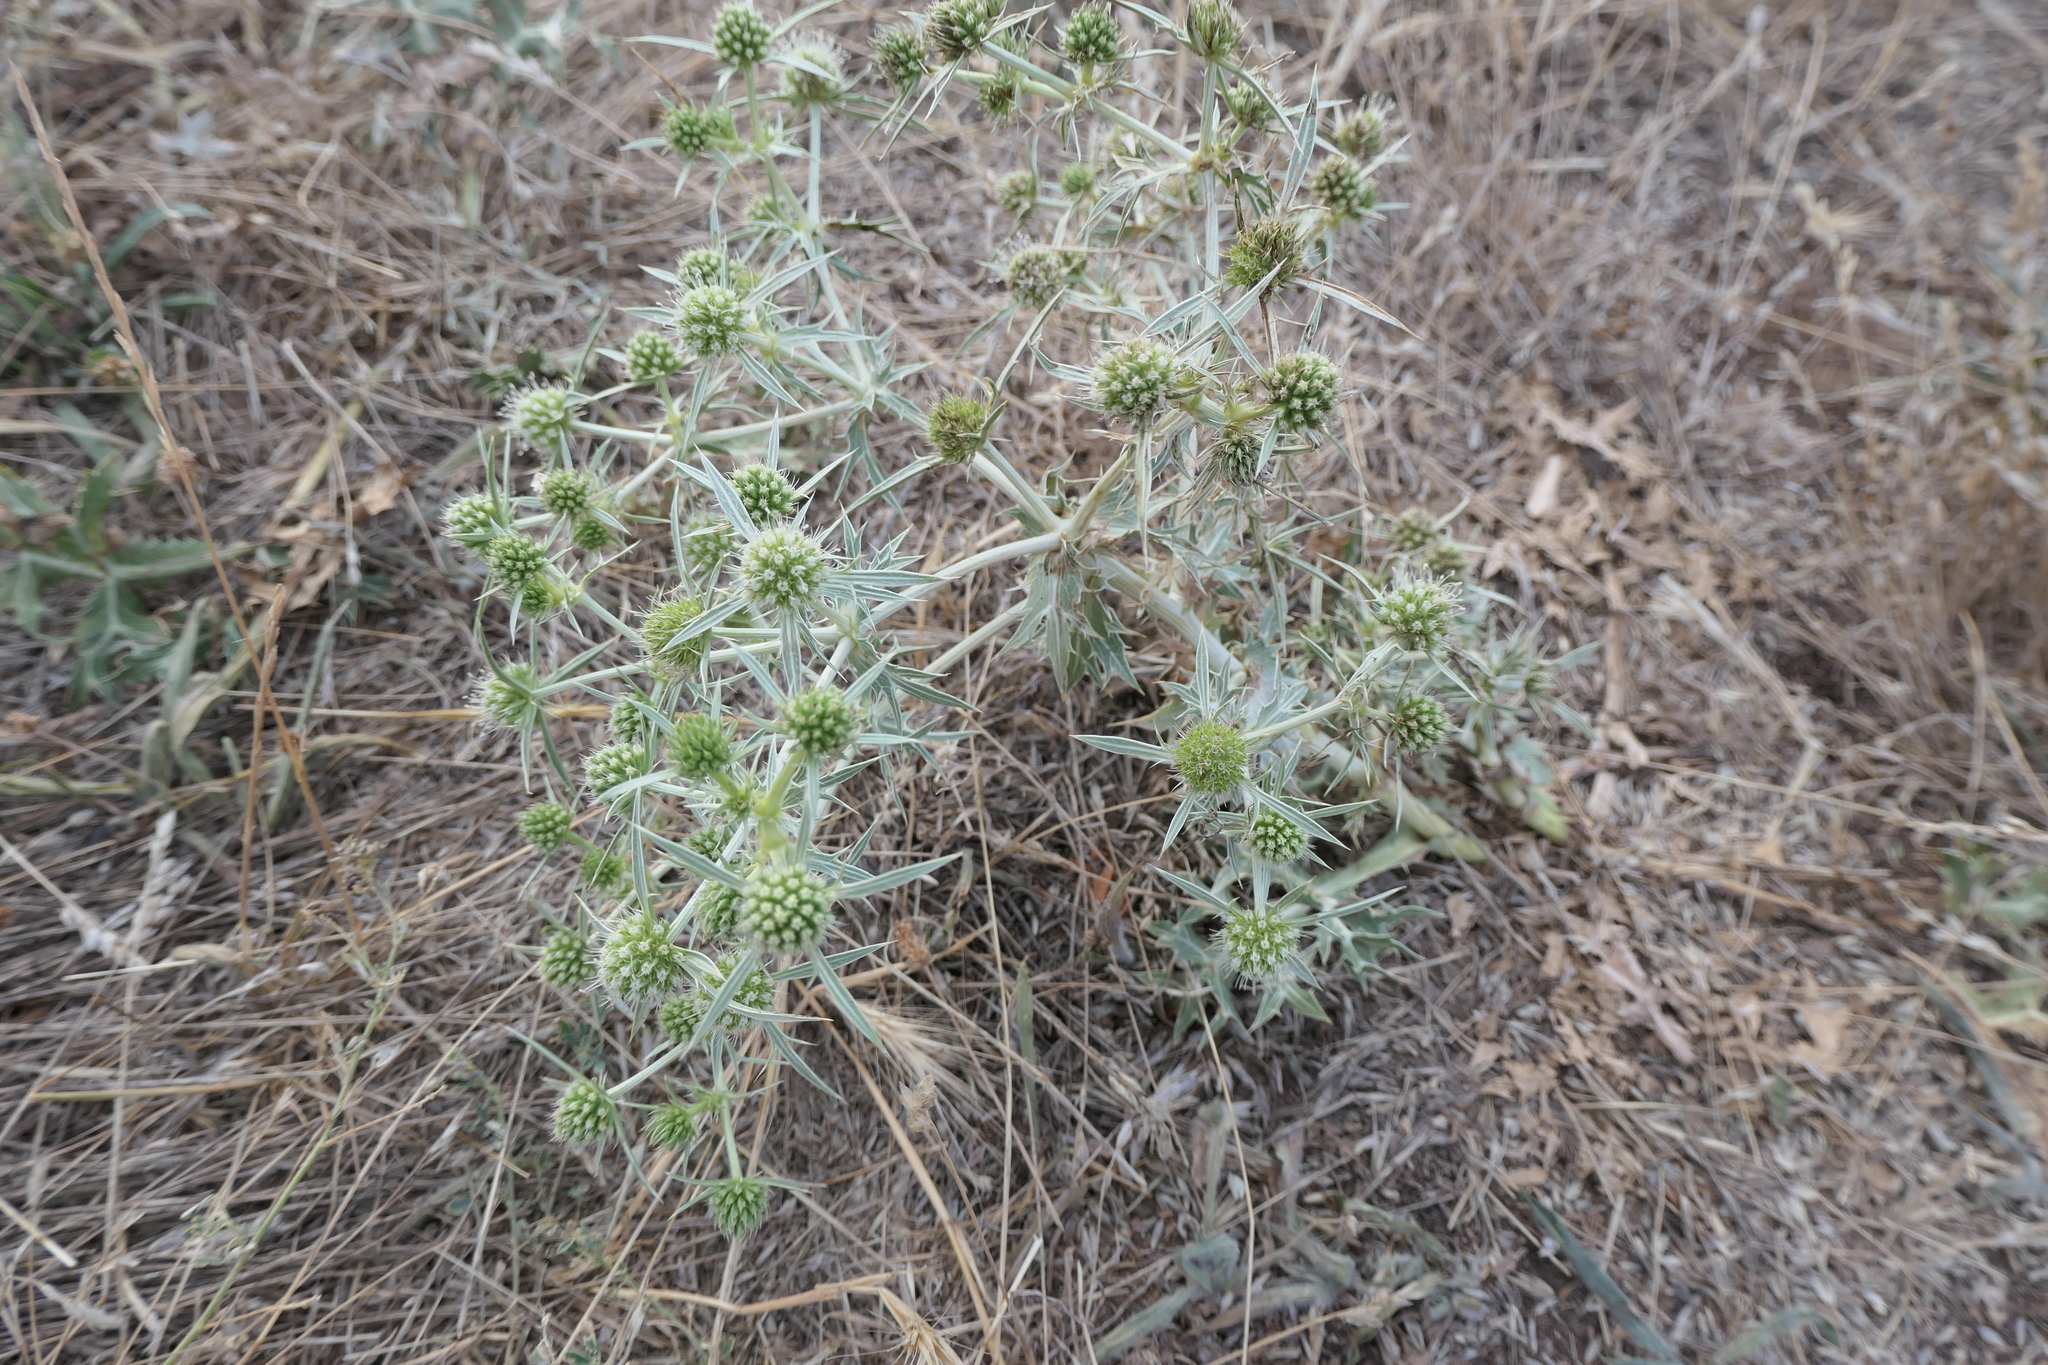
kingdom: Plantae
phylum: Tracheophyta
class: Magnoliopsida
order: Apiales
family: Apiaceae
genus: Eryngium
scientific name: Eryngium campestre
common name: Field eryngo
